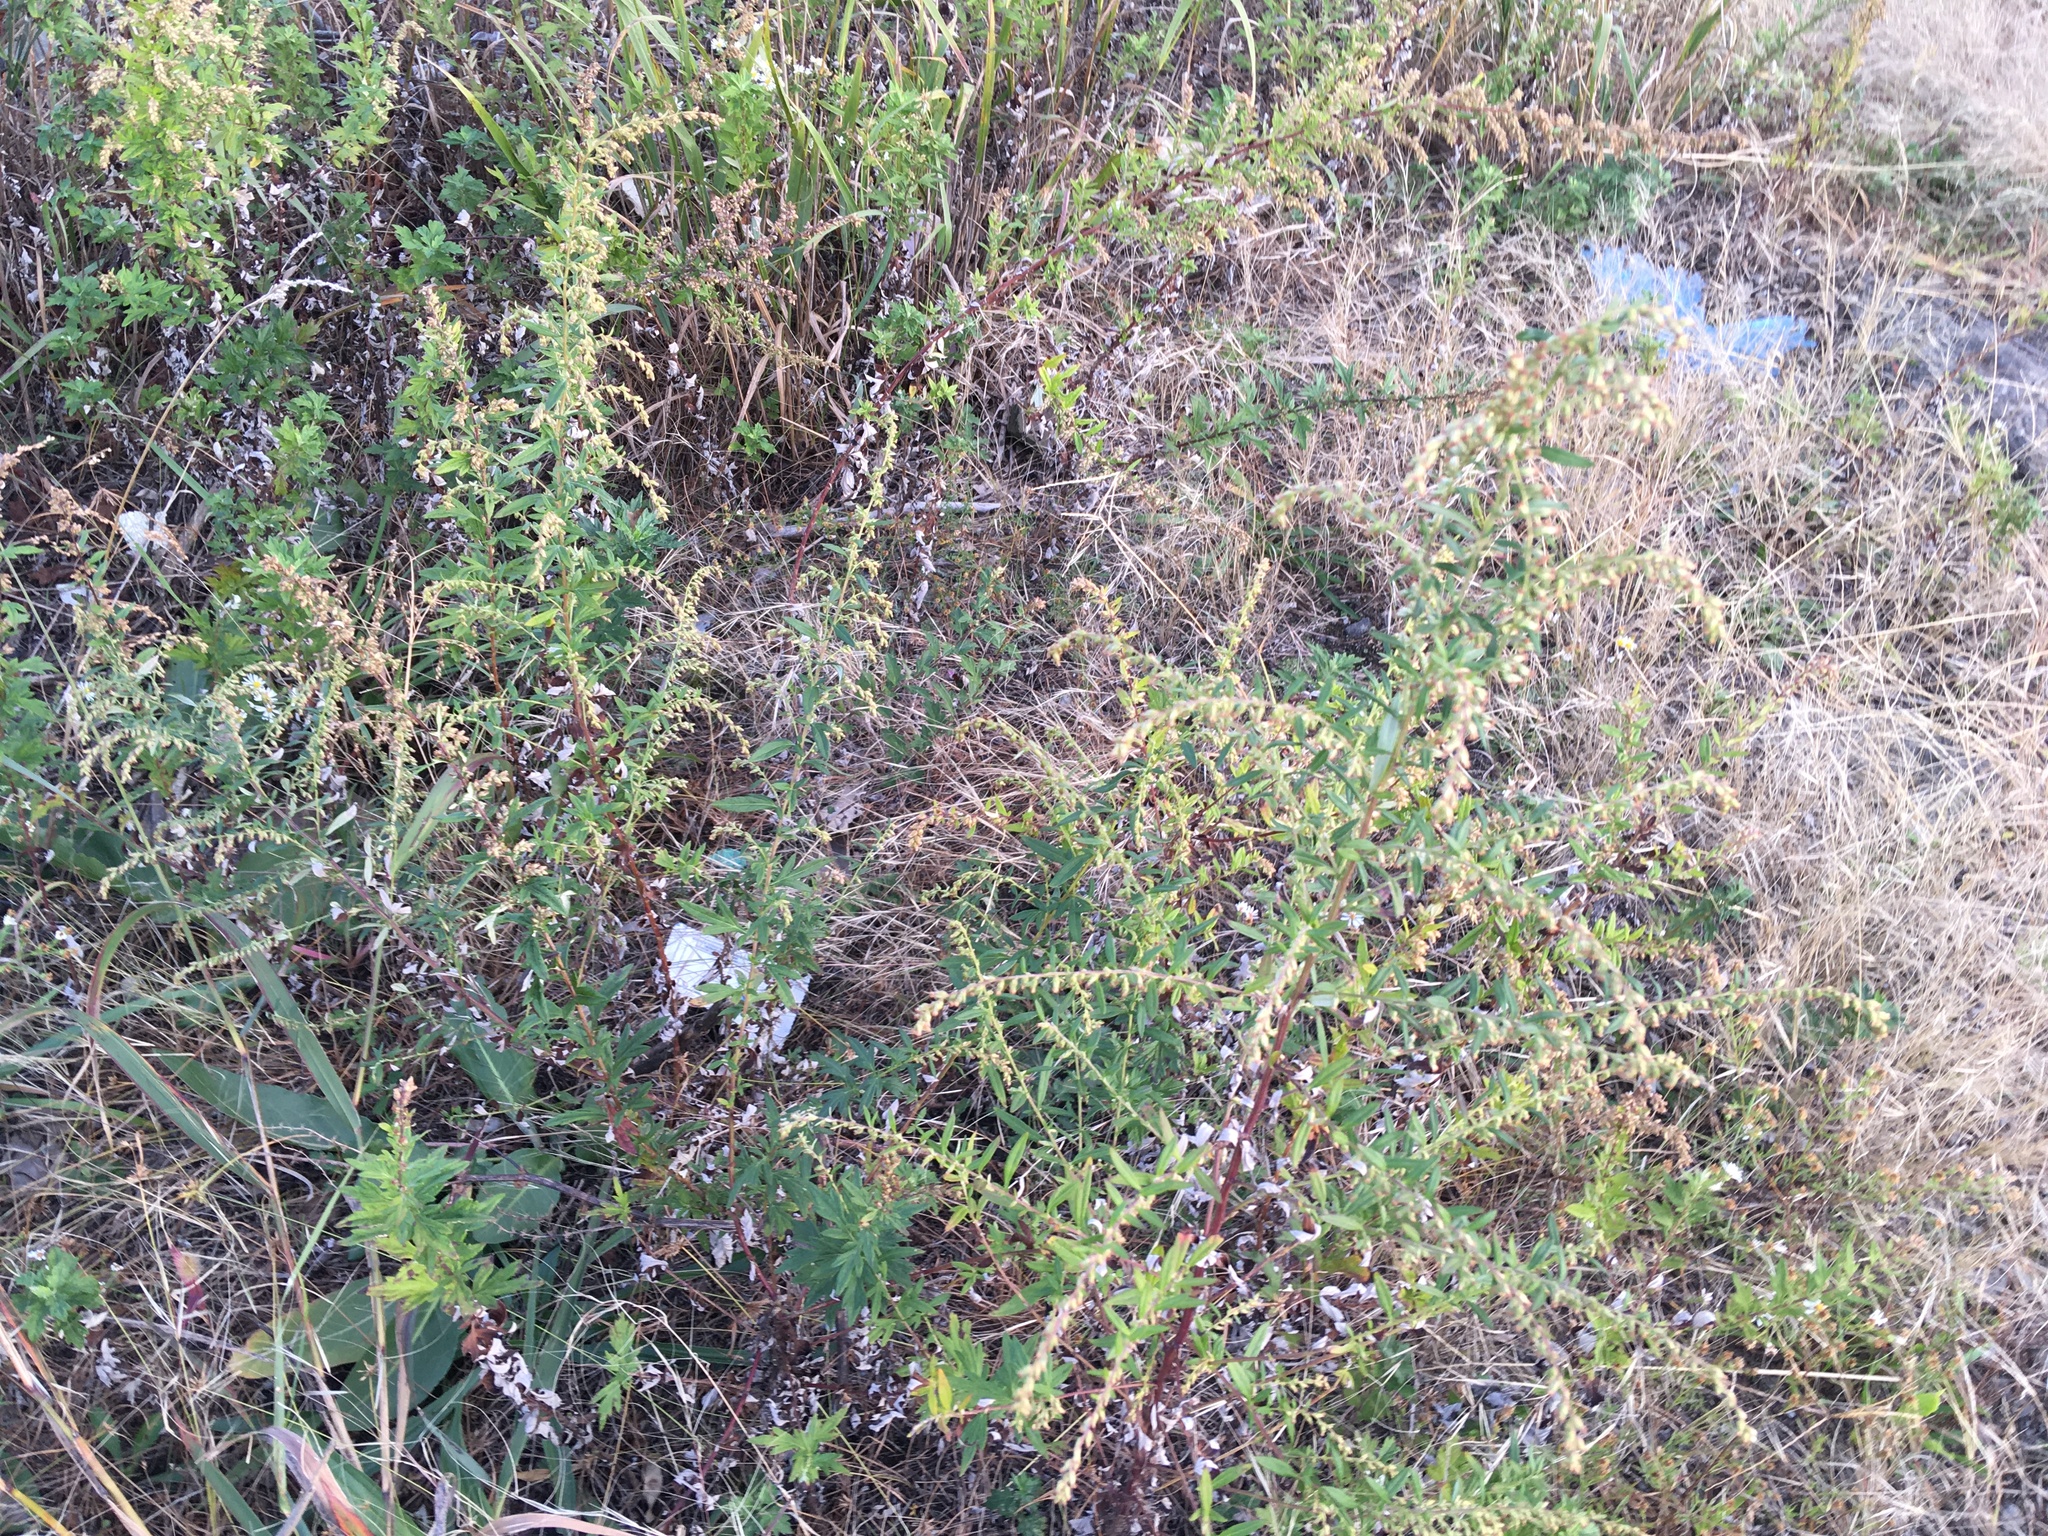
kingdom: Plantae
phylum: Tracheophyta
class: Magnoliopsida
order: Asterales
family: Asteraceae
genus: Artemisia
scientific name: Artemisia vulgaris
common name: Mugwort
